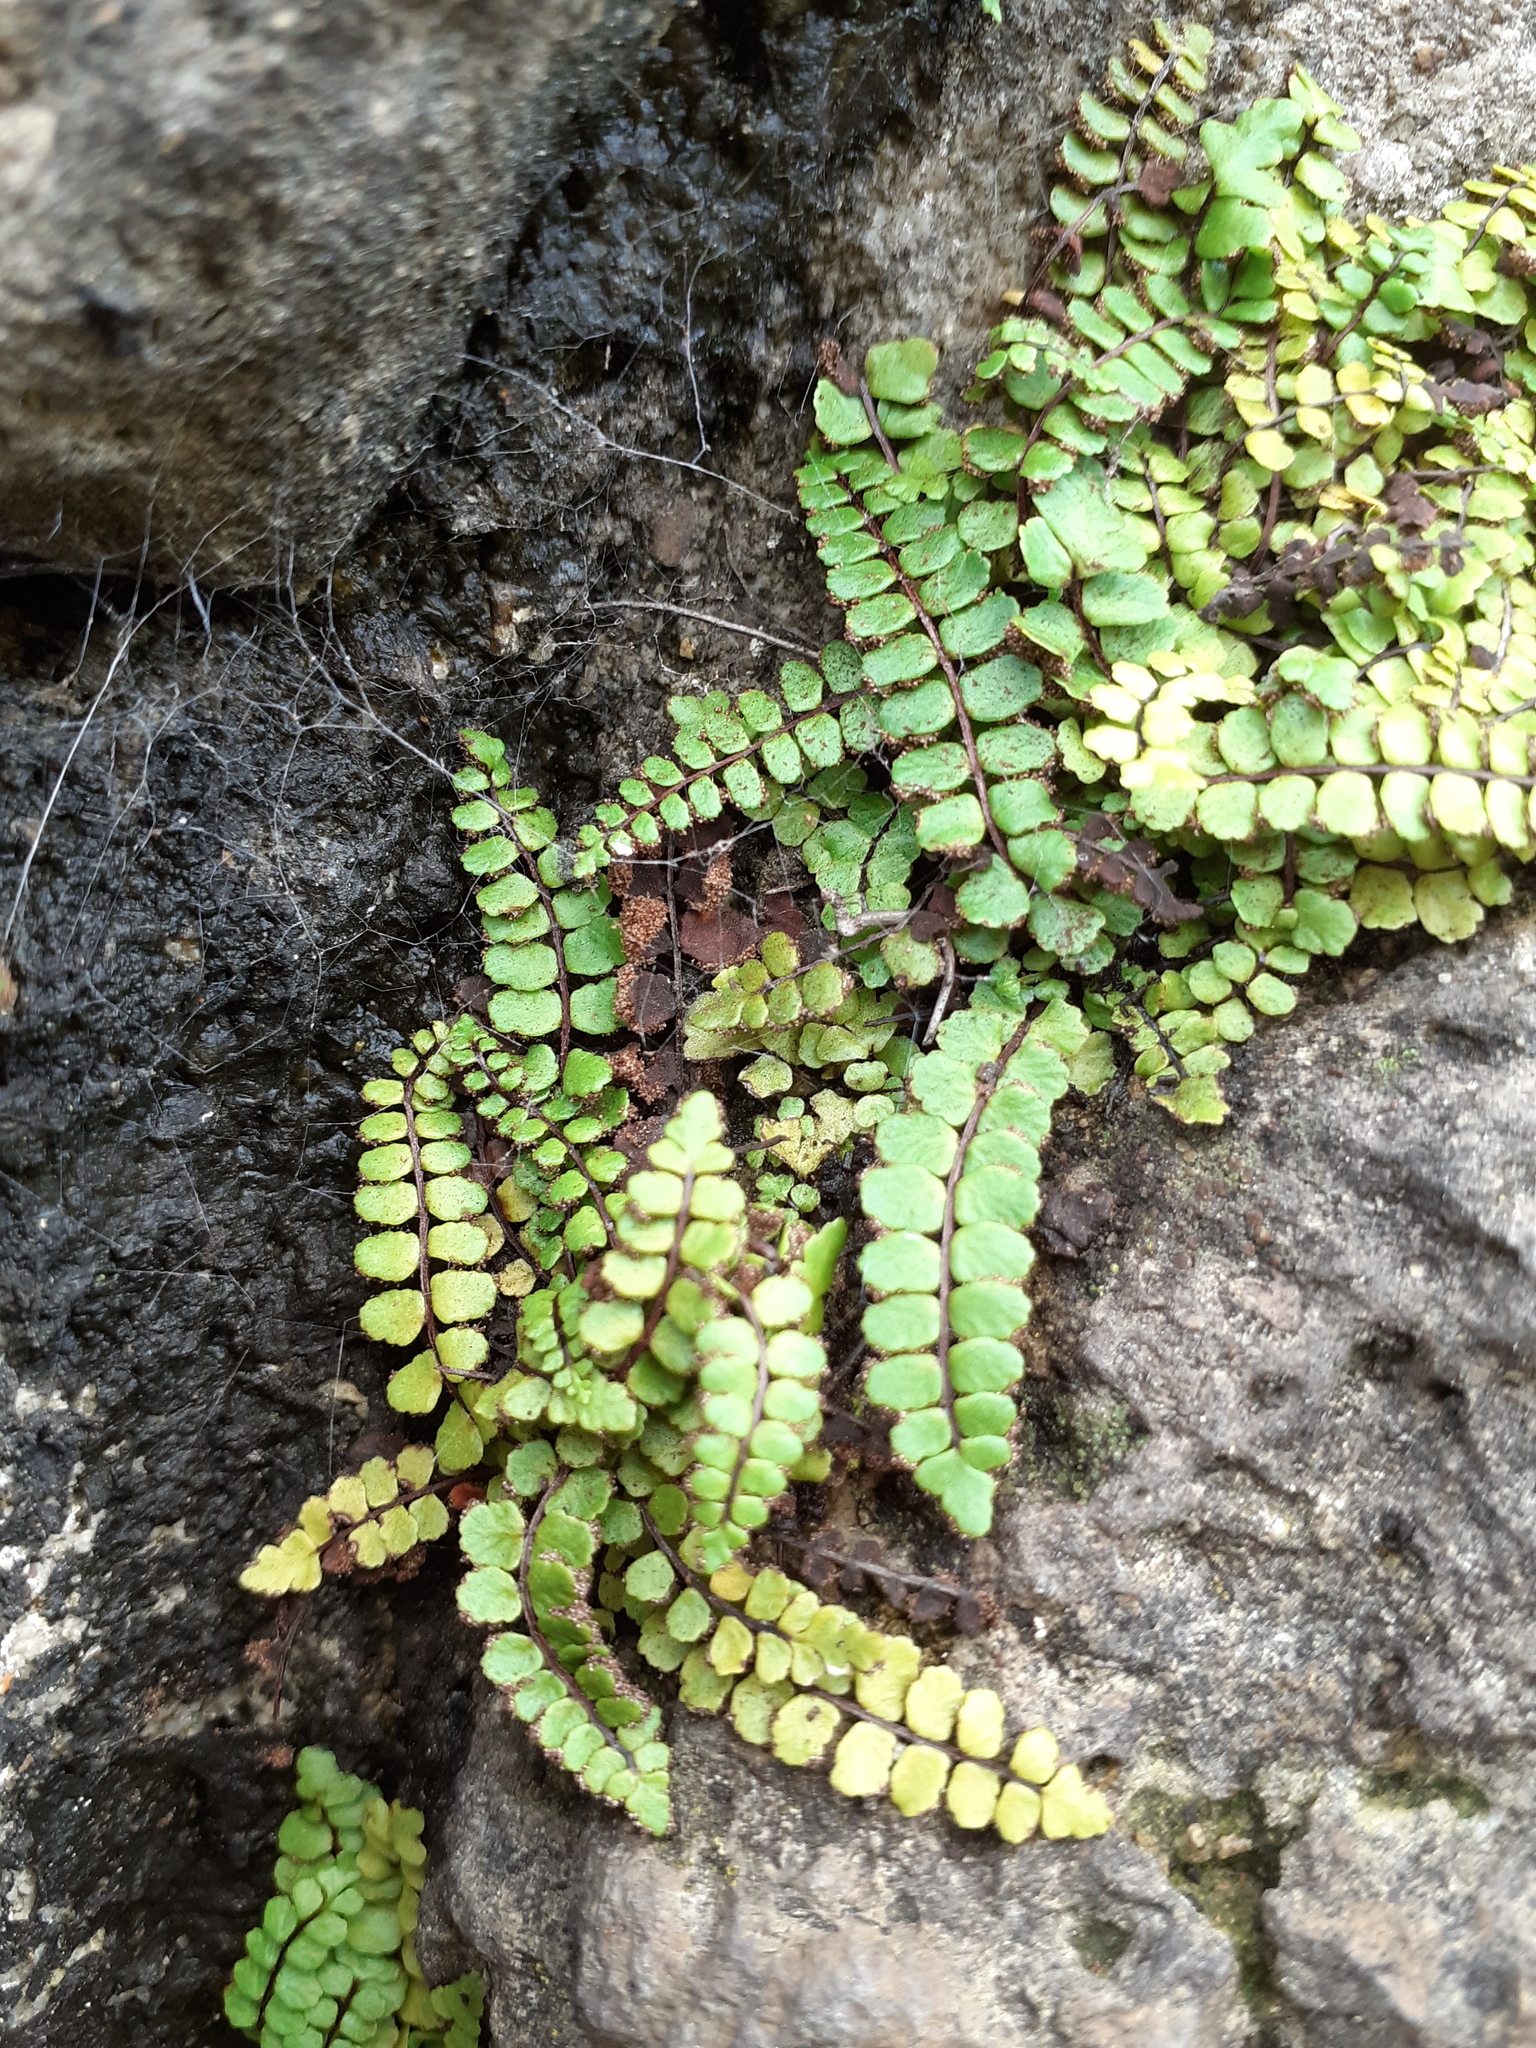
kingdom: Plantae
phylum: Tracheophyta
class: Polypodiopsida
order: Polypodiales
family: Aspleniaceae
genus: Asplenium
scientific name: Asplenium trichomanes
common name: Maidenhair spleenwort
